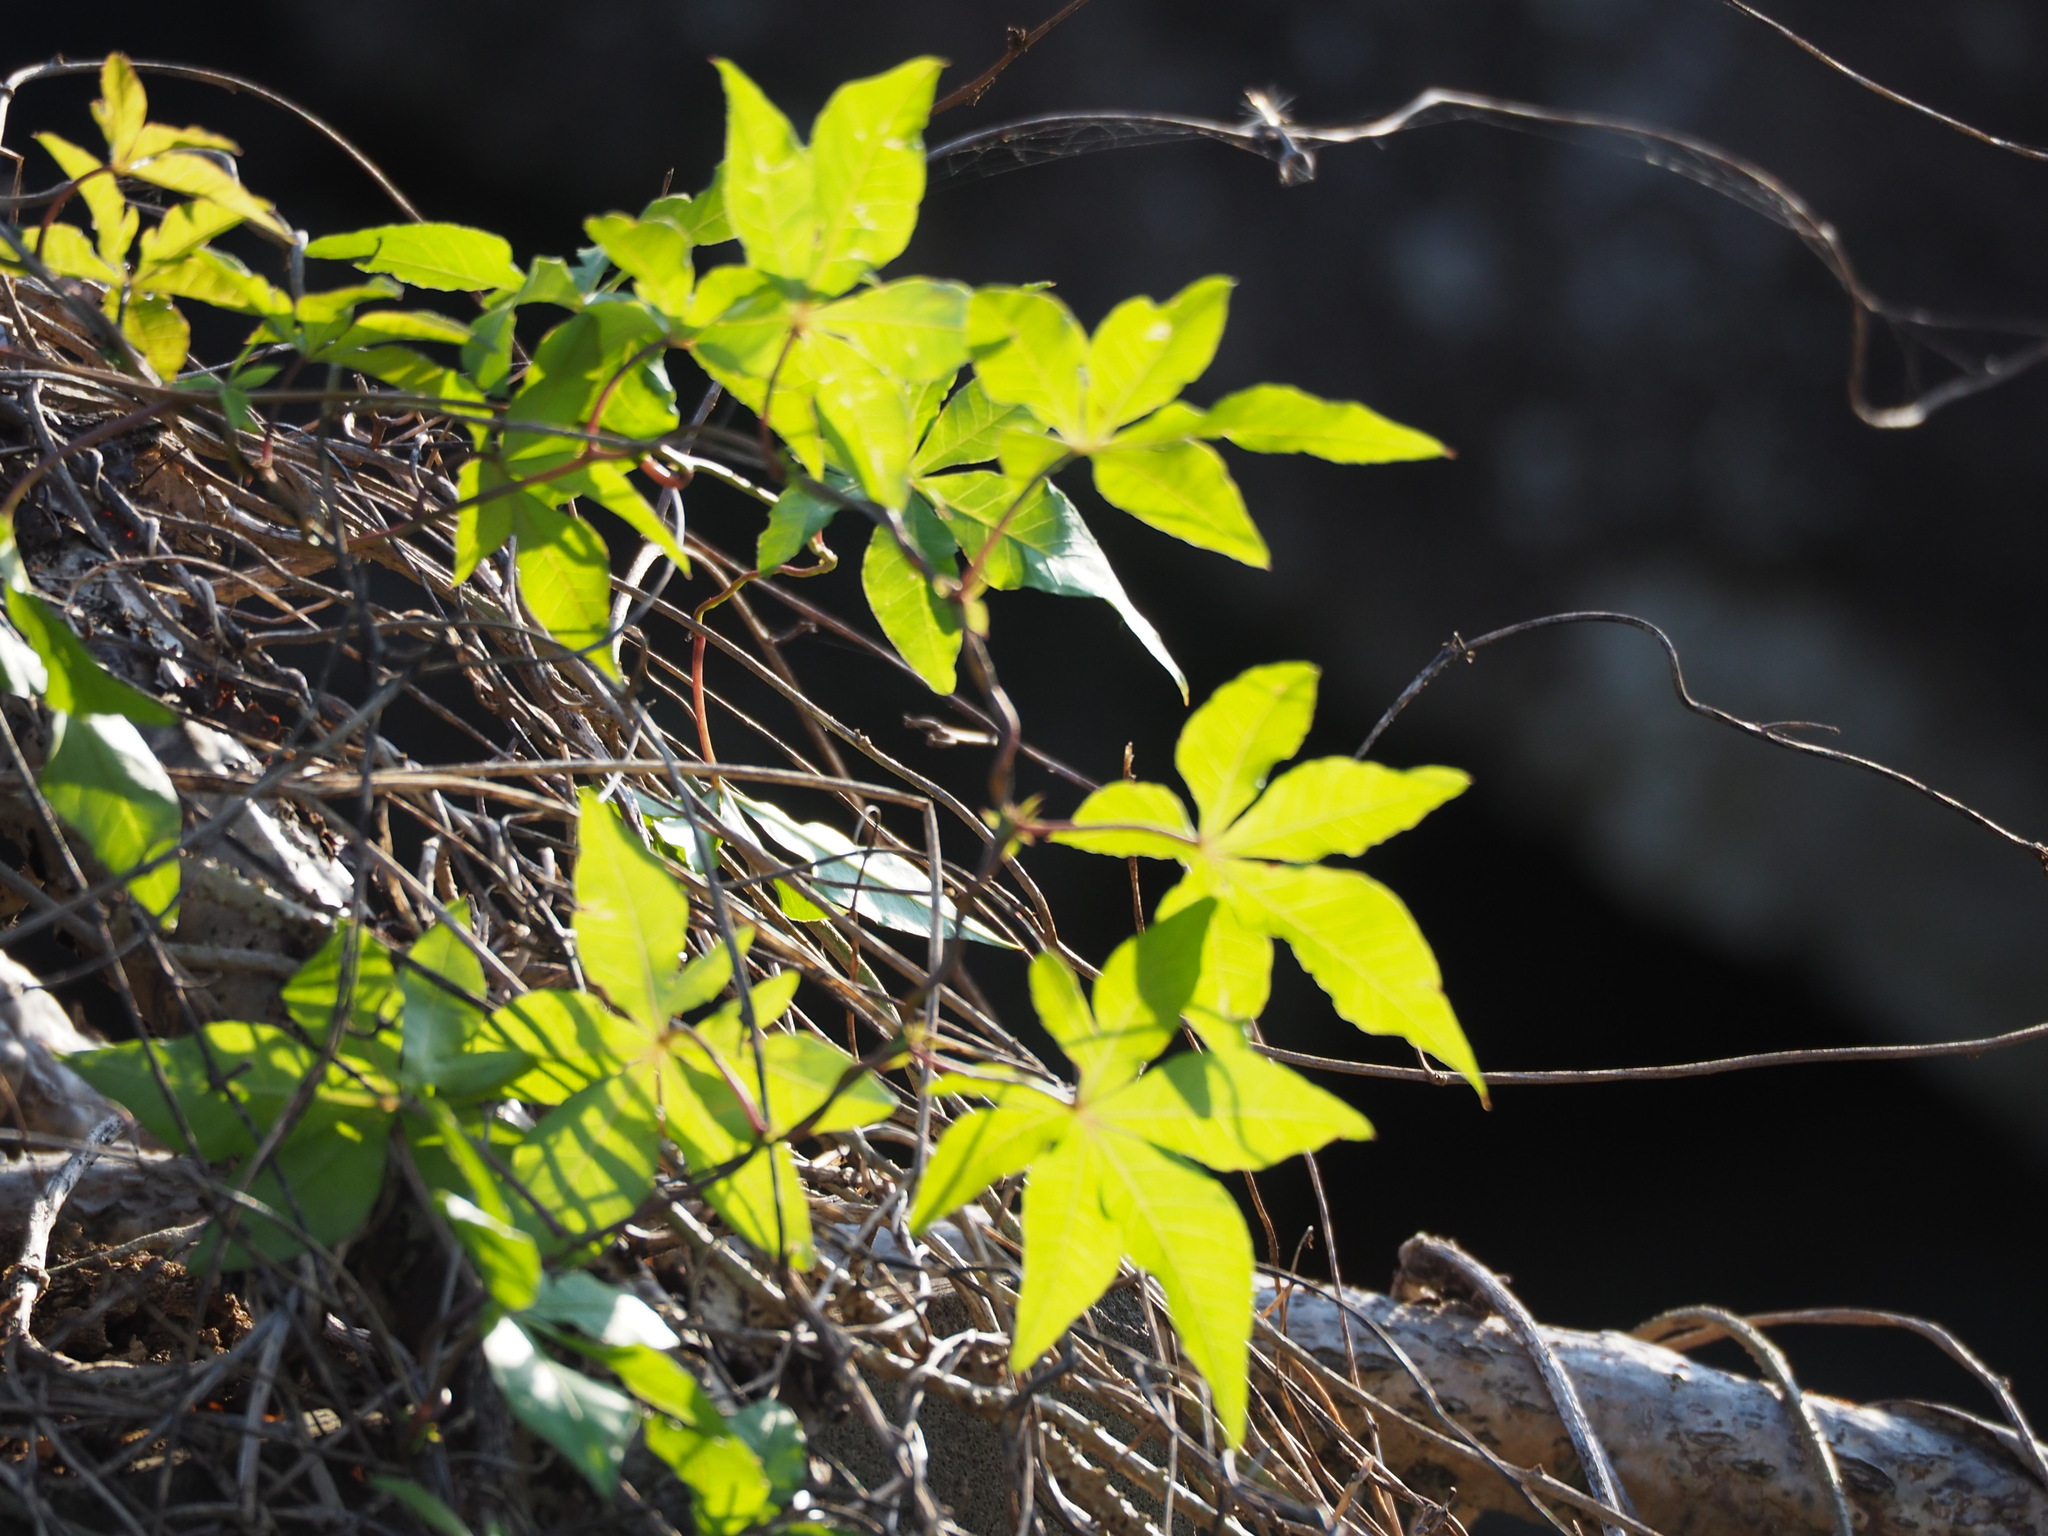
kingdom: Plantae
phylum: Tracheophyta
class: Magnoliopsida
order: Solanales
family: Convolvulaceae
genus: Ipomoea
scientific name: Ipomoea cairica
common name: Mile a minute vine
